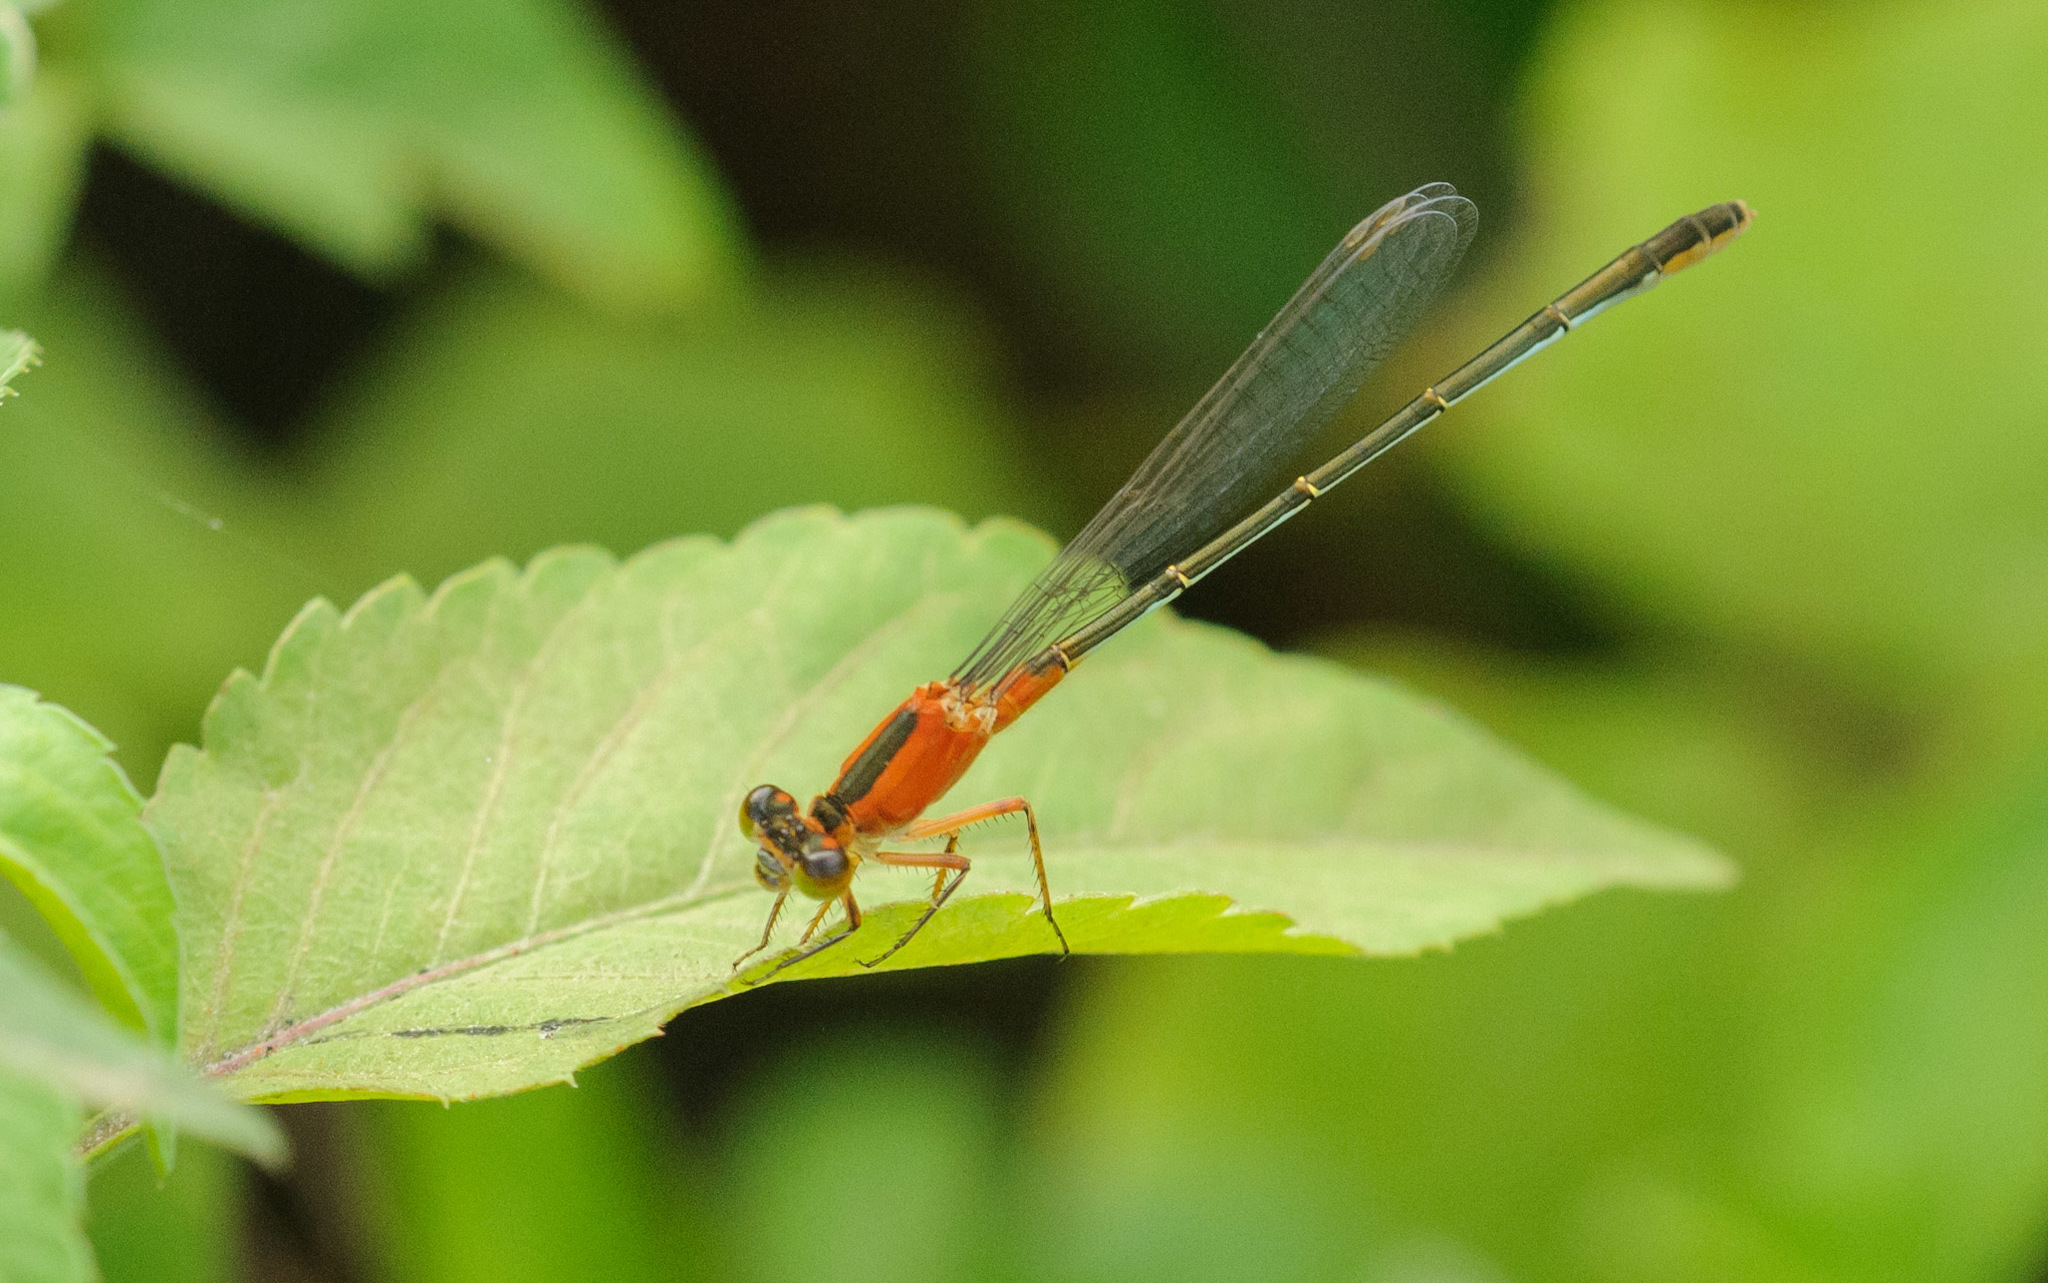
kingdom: Animalia
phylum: Arthropoda
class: Insecta
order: Odonata
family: Coenagrionidae
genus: Ischnura
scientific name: Ischnura ramburii
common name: Rambur's forktail
